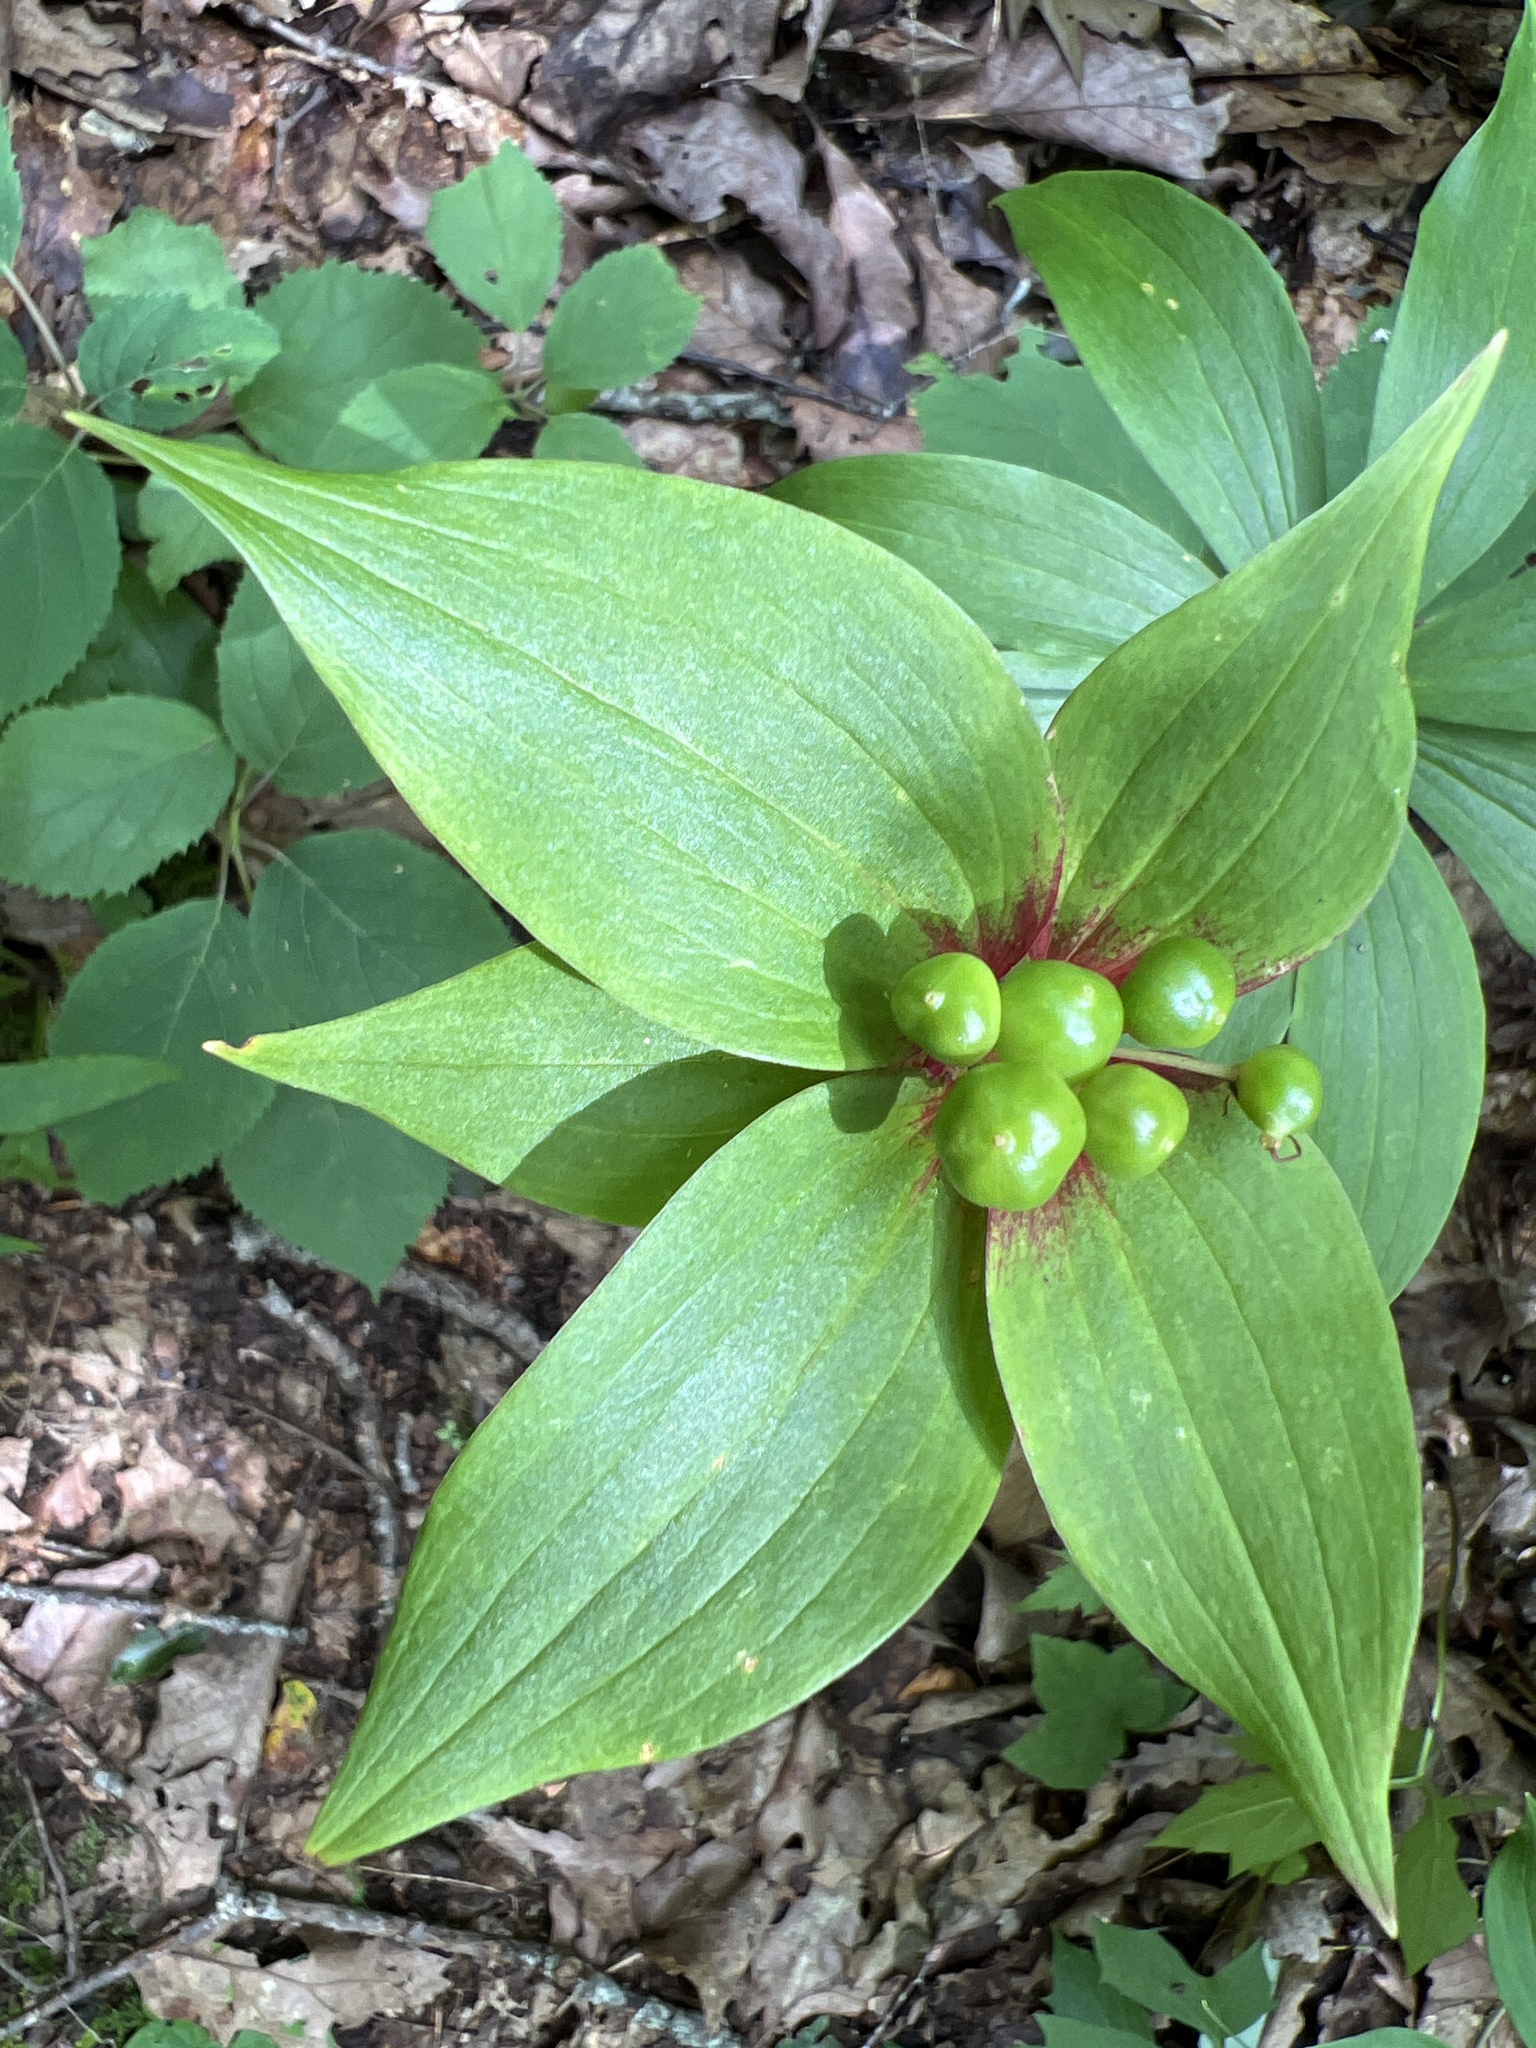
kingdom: Plantae
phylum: Tracheophyta
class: Liliopsida
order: Liliales
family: Liliaceae
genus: Medeola
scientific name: Medeola virginiana
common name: Indian cucumber-root
